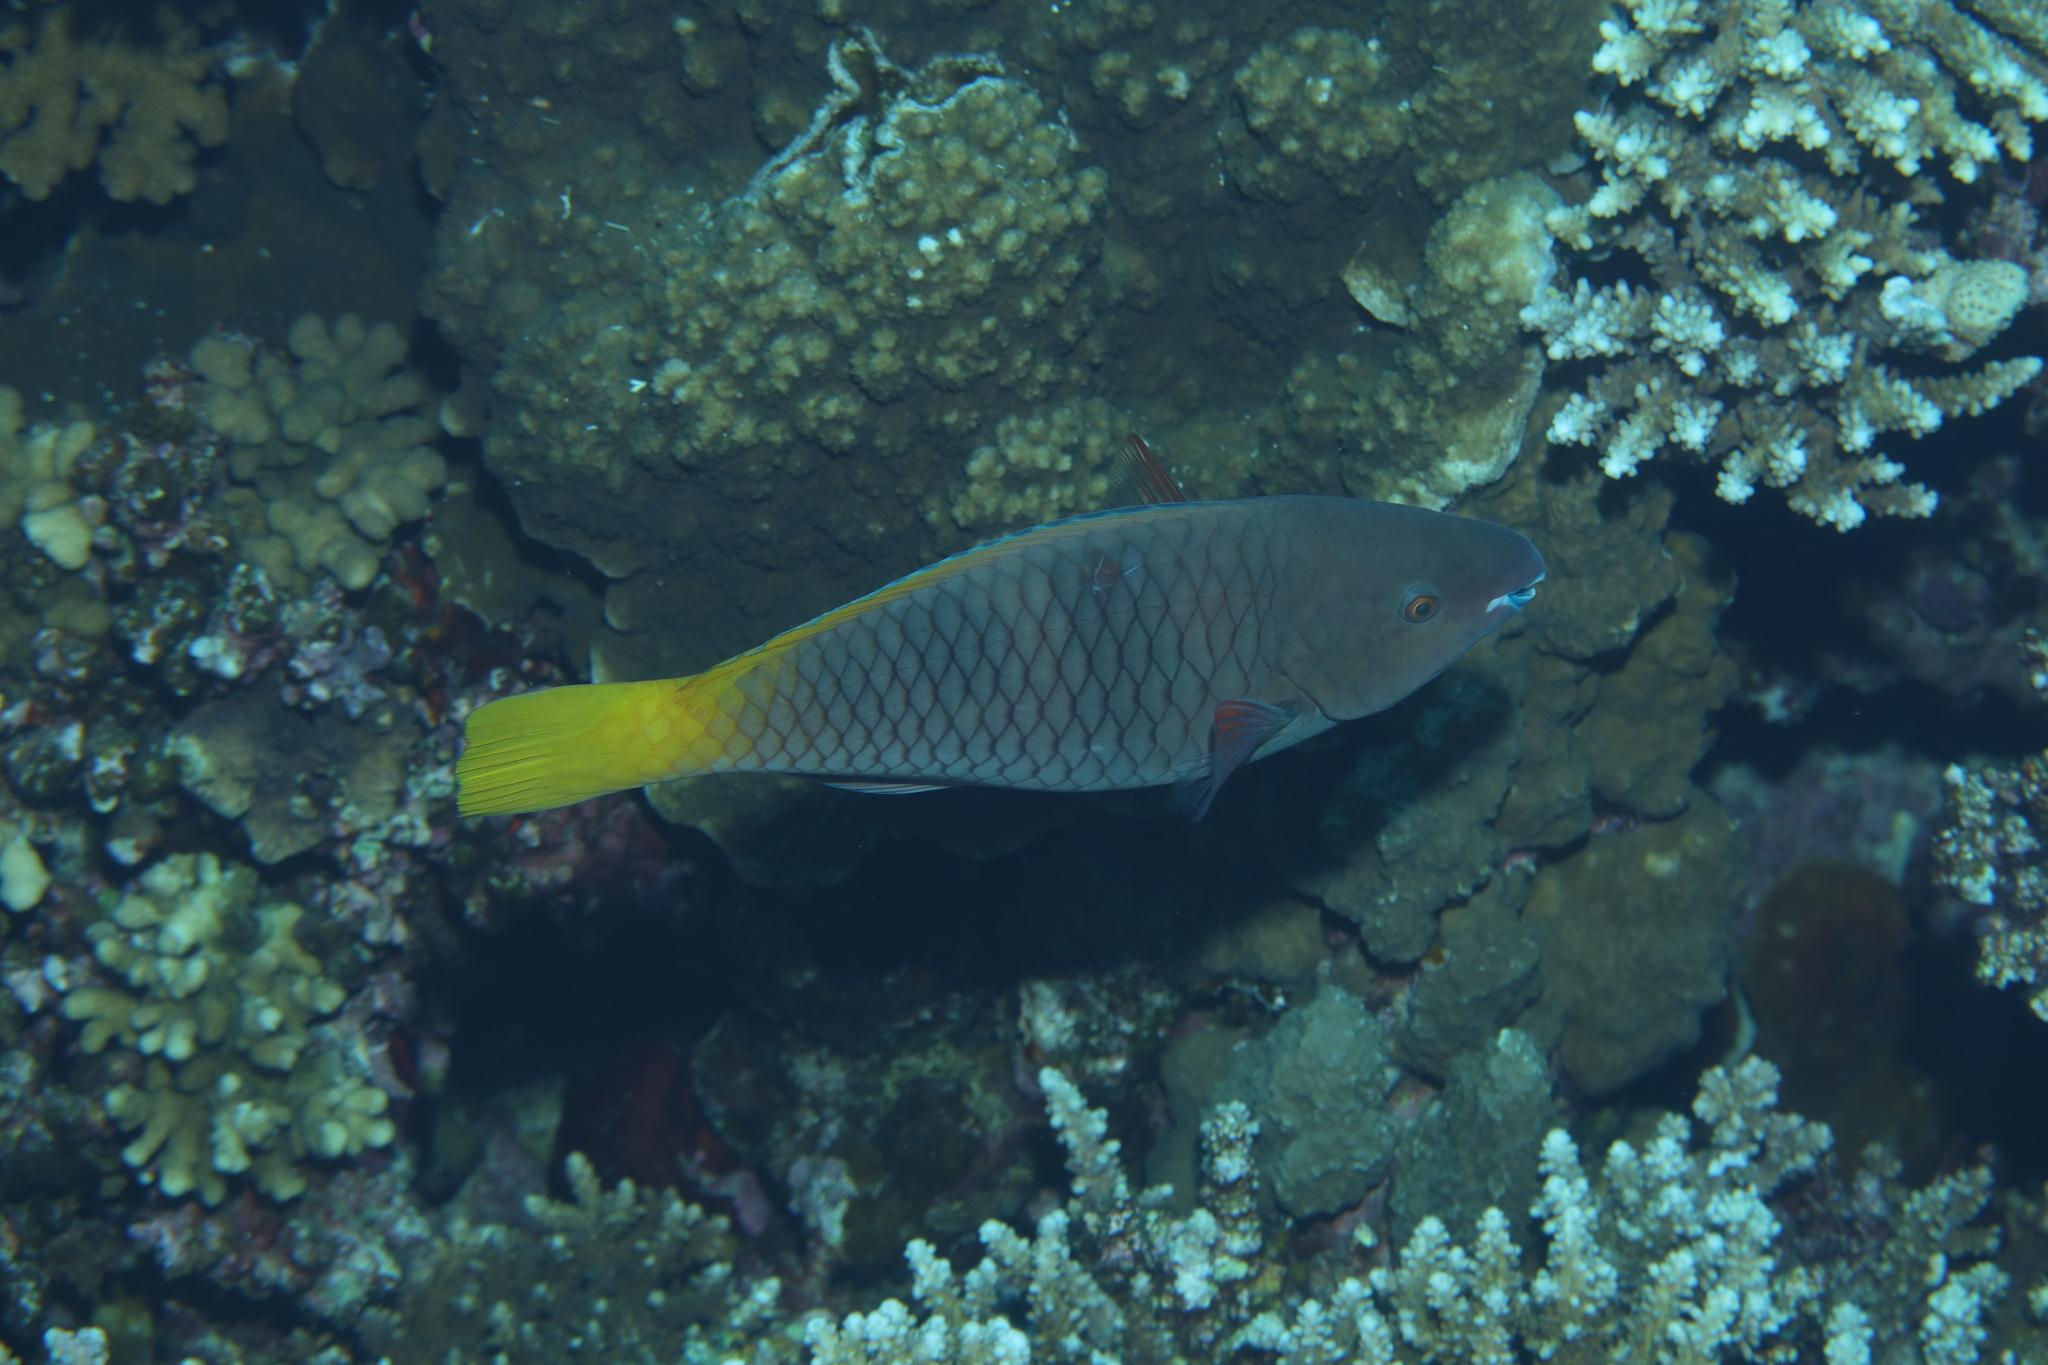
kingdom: Animalia
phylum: Chordata
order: Perciformes
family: Scaridae
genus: Scarus
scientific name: Scarus ferrugineus
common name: Rusty parrotfish
